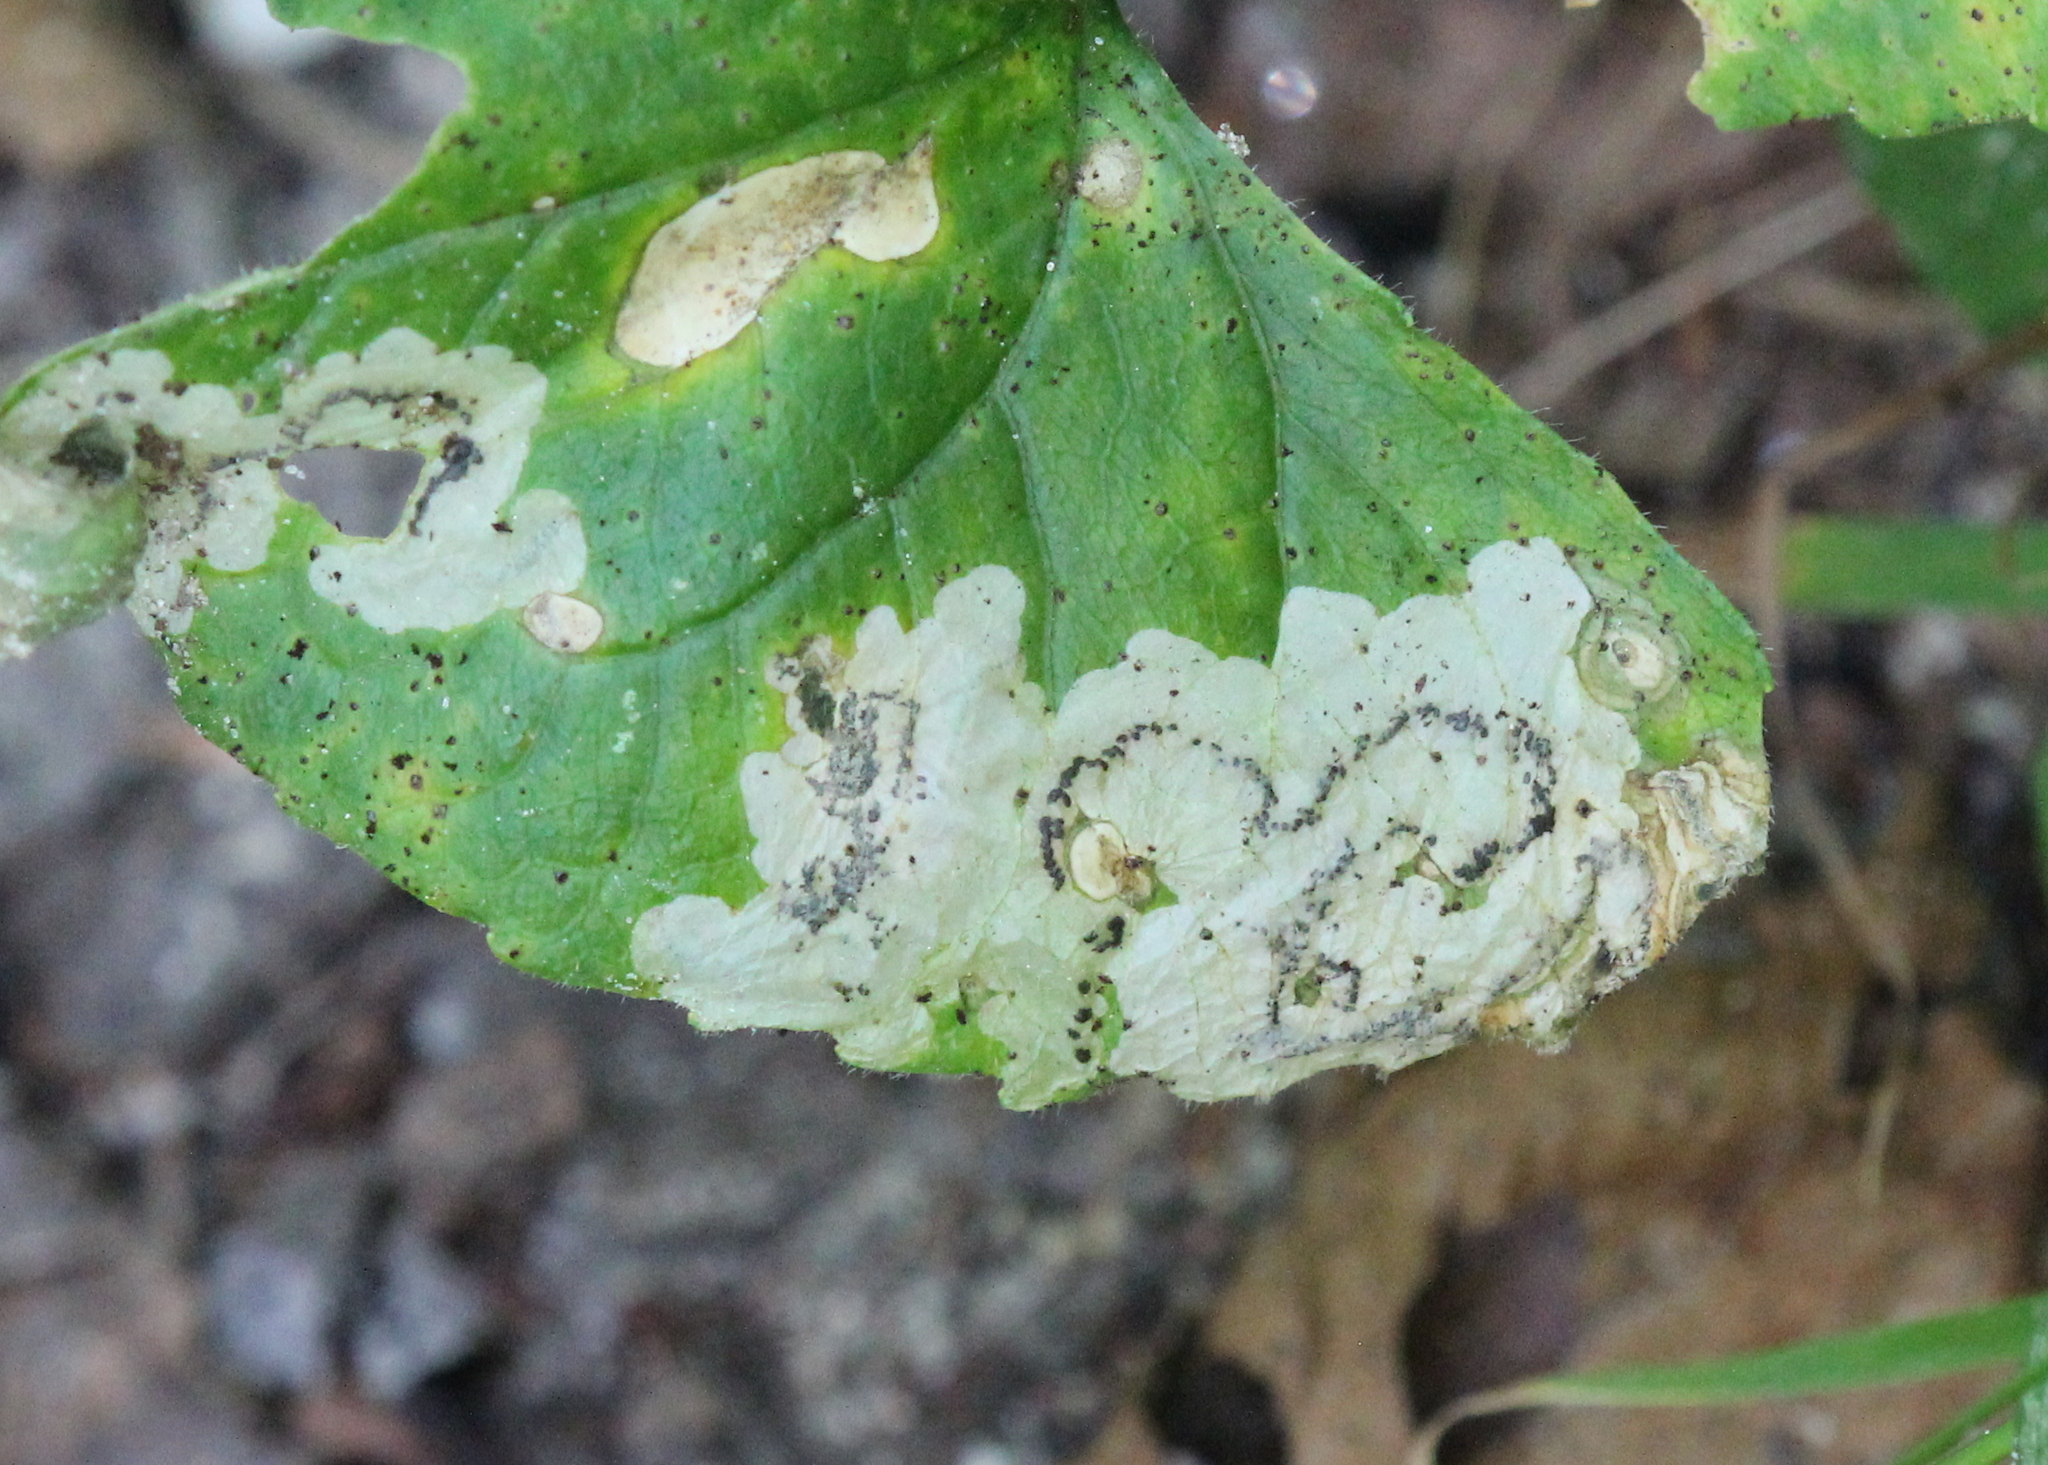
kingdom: Animalia
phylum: Arthropoda
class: Insecta
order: Hymenoptera
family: Tenthredinidae
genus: Nefusa
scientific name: Nefusa ambigua
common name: Violet leafmining sawfly
